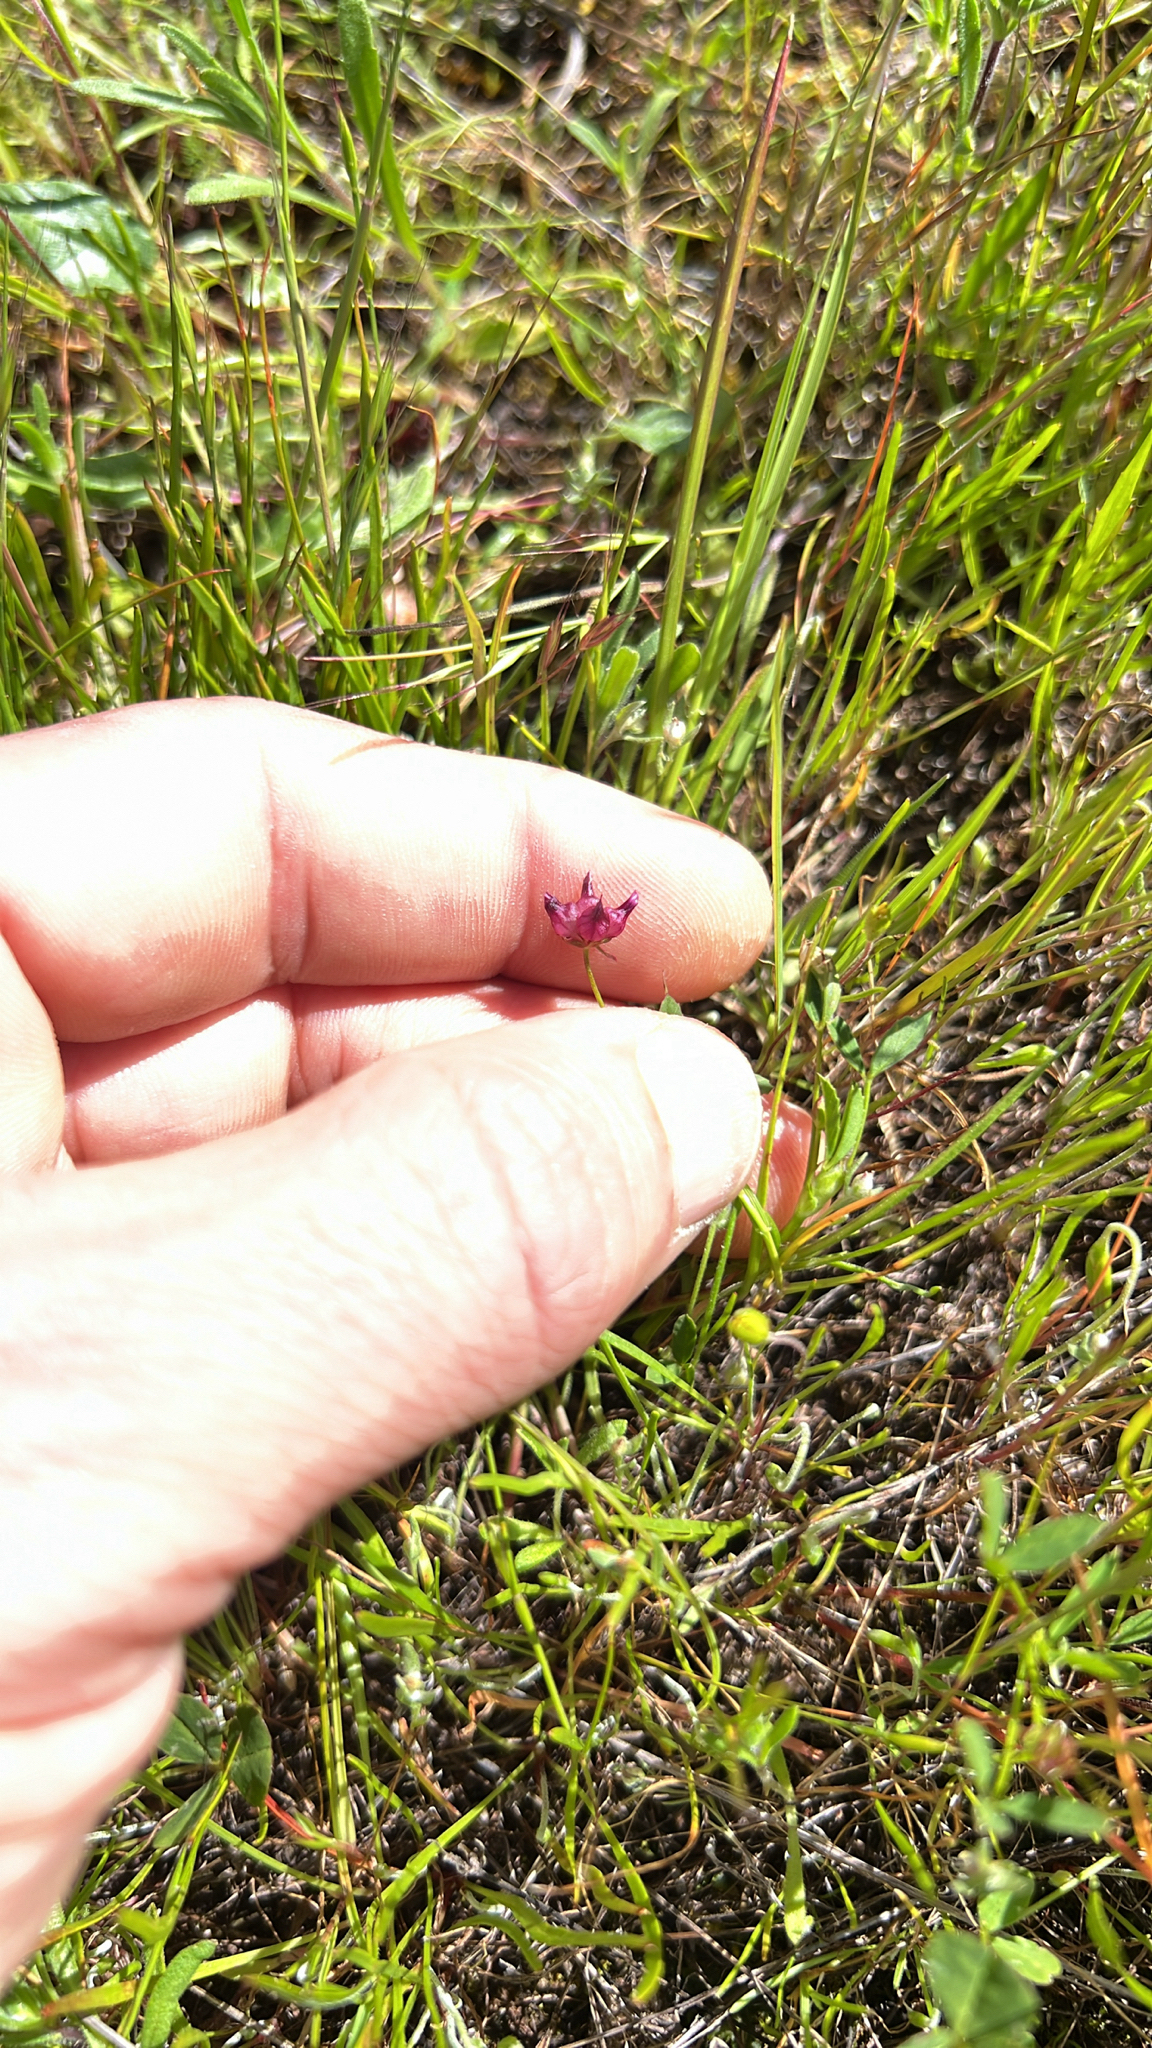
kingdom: Plantae
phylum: Tracheophyta
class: Magnoliopsida
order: Fabales
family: Fabaceae
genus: Trifolium
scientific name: Trifolium depauperatum
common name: Poverty clover
